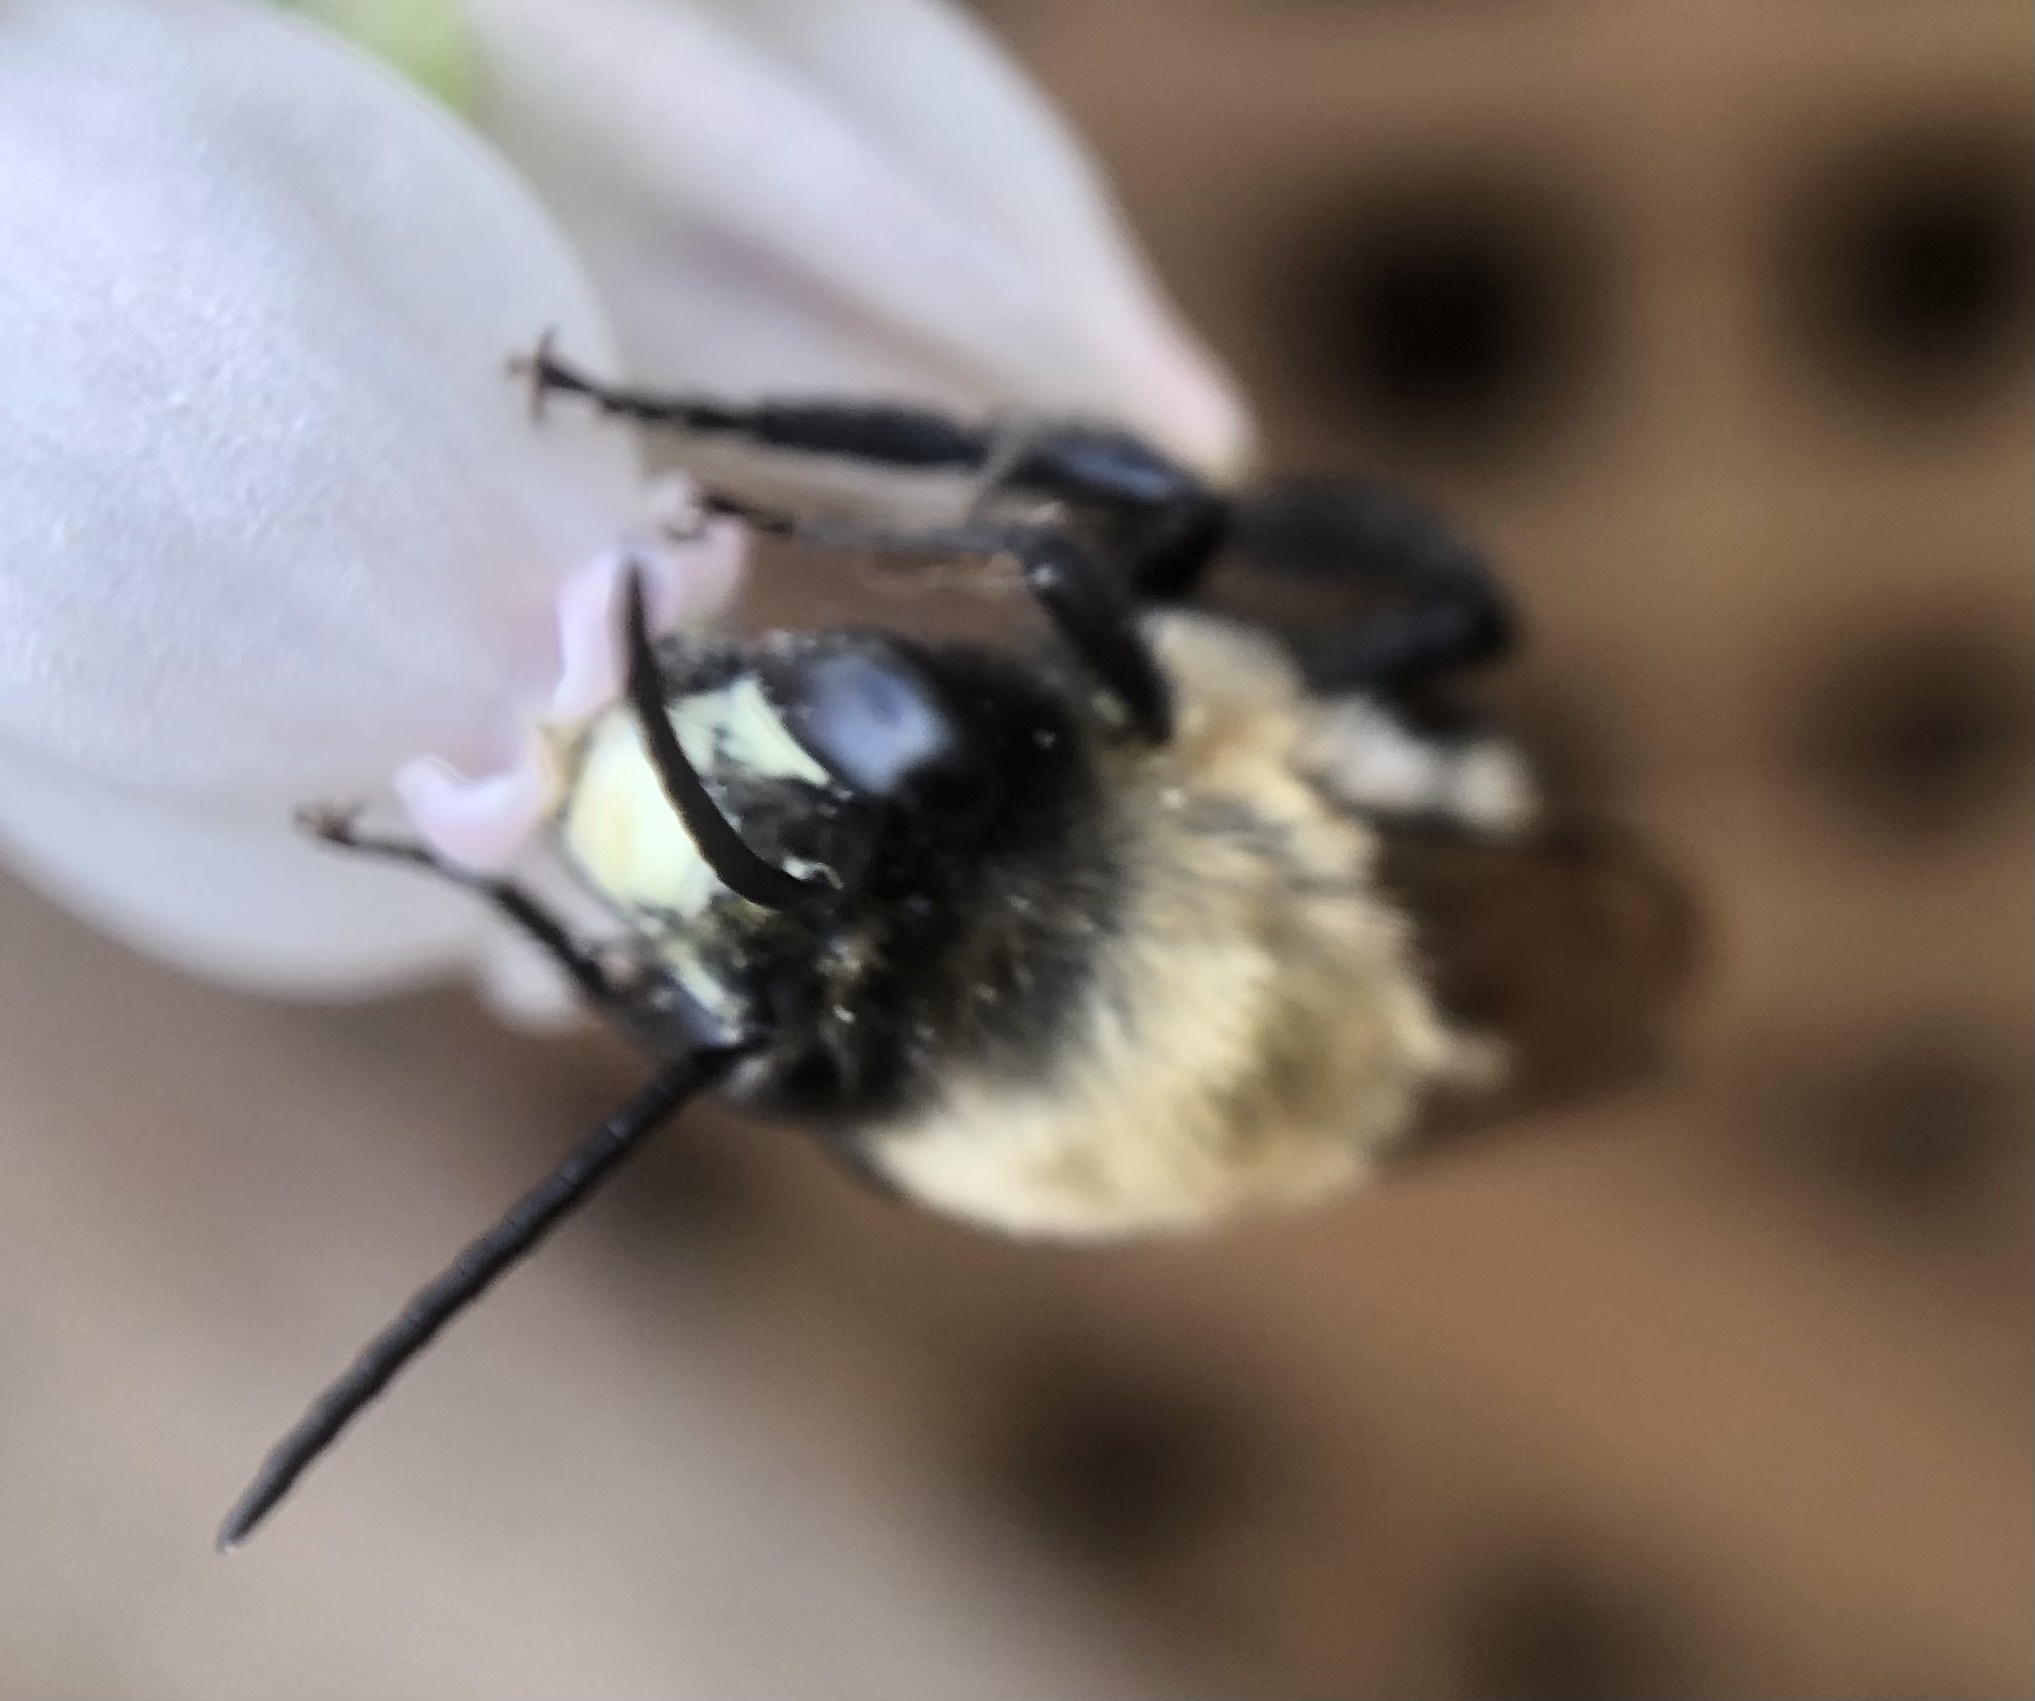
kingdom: Animalia
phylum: Arthropoda
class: Insecta
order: Hymenoptera
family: Apidae
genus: Habropoda
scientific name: Habropoda laboriosa
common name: Southeastern blueberry bee
